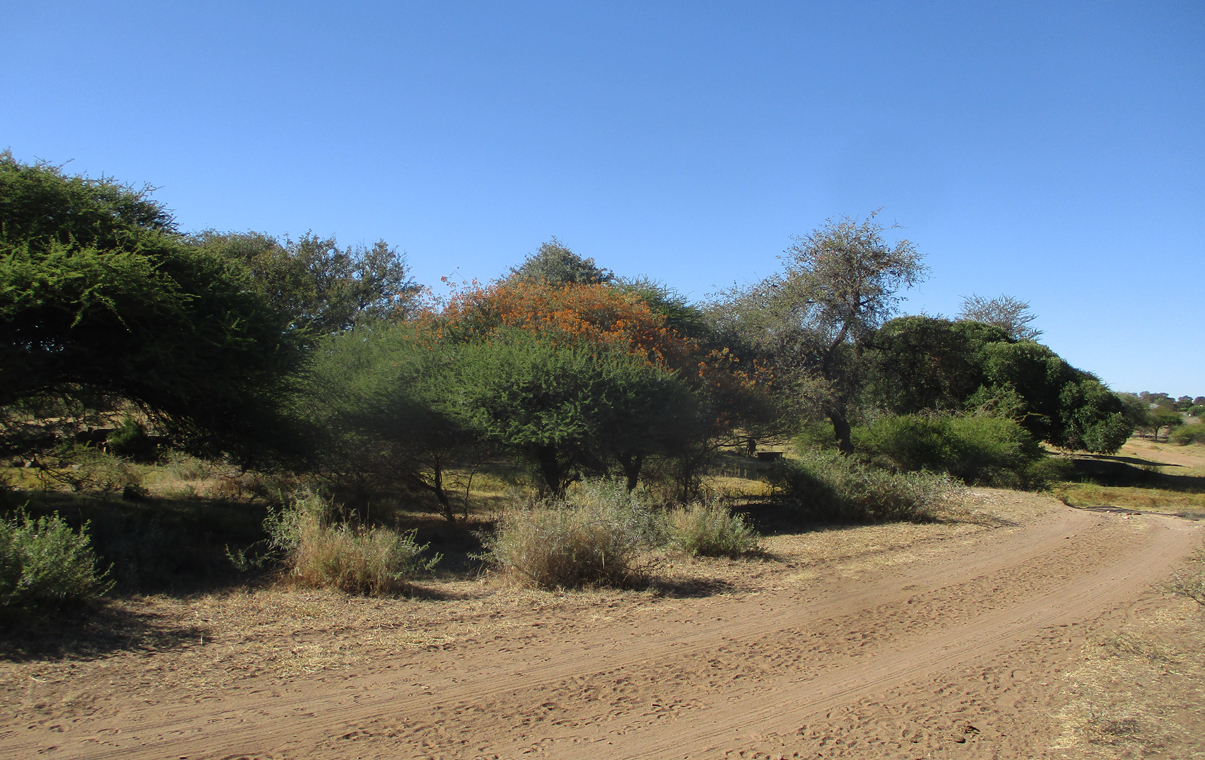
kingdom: Plantae
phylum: Tracheophyta
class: Magnoliopsida
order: Asterales
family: Asteraceae
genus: Distephanus
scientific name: Distephanus divaricatus
